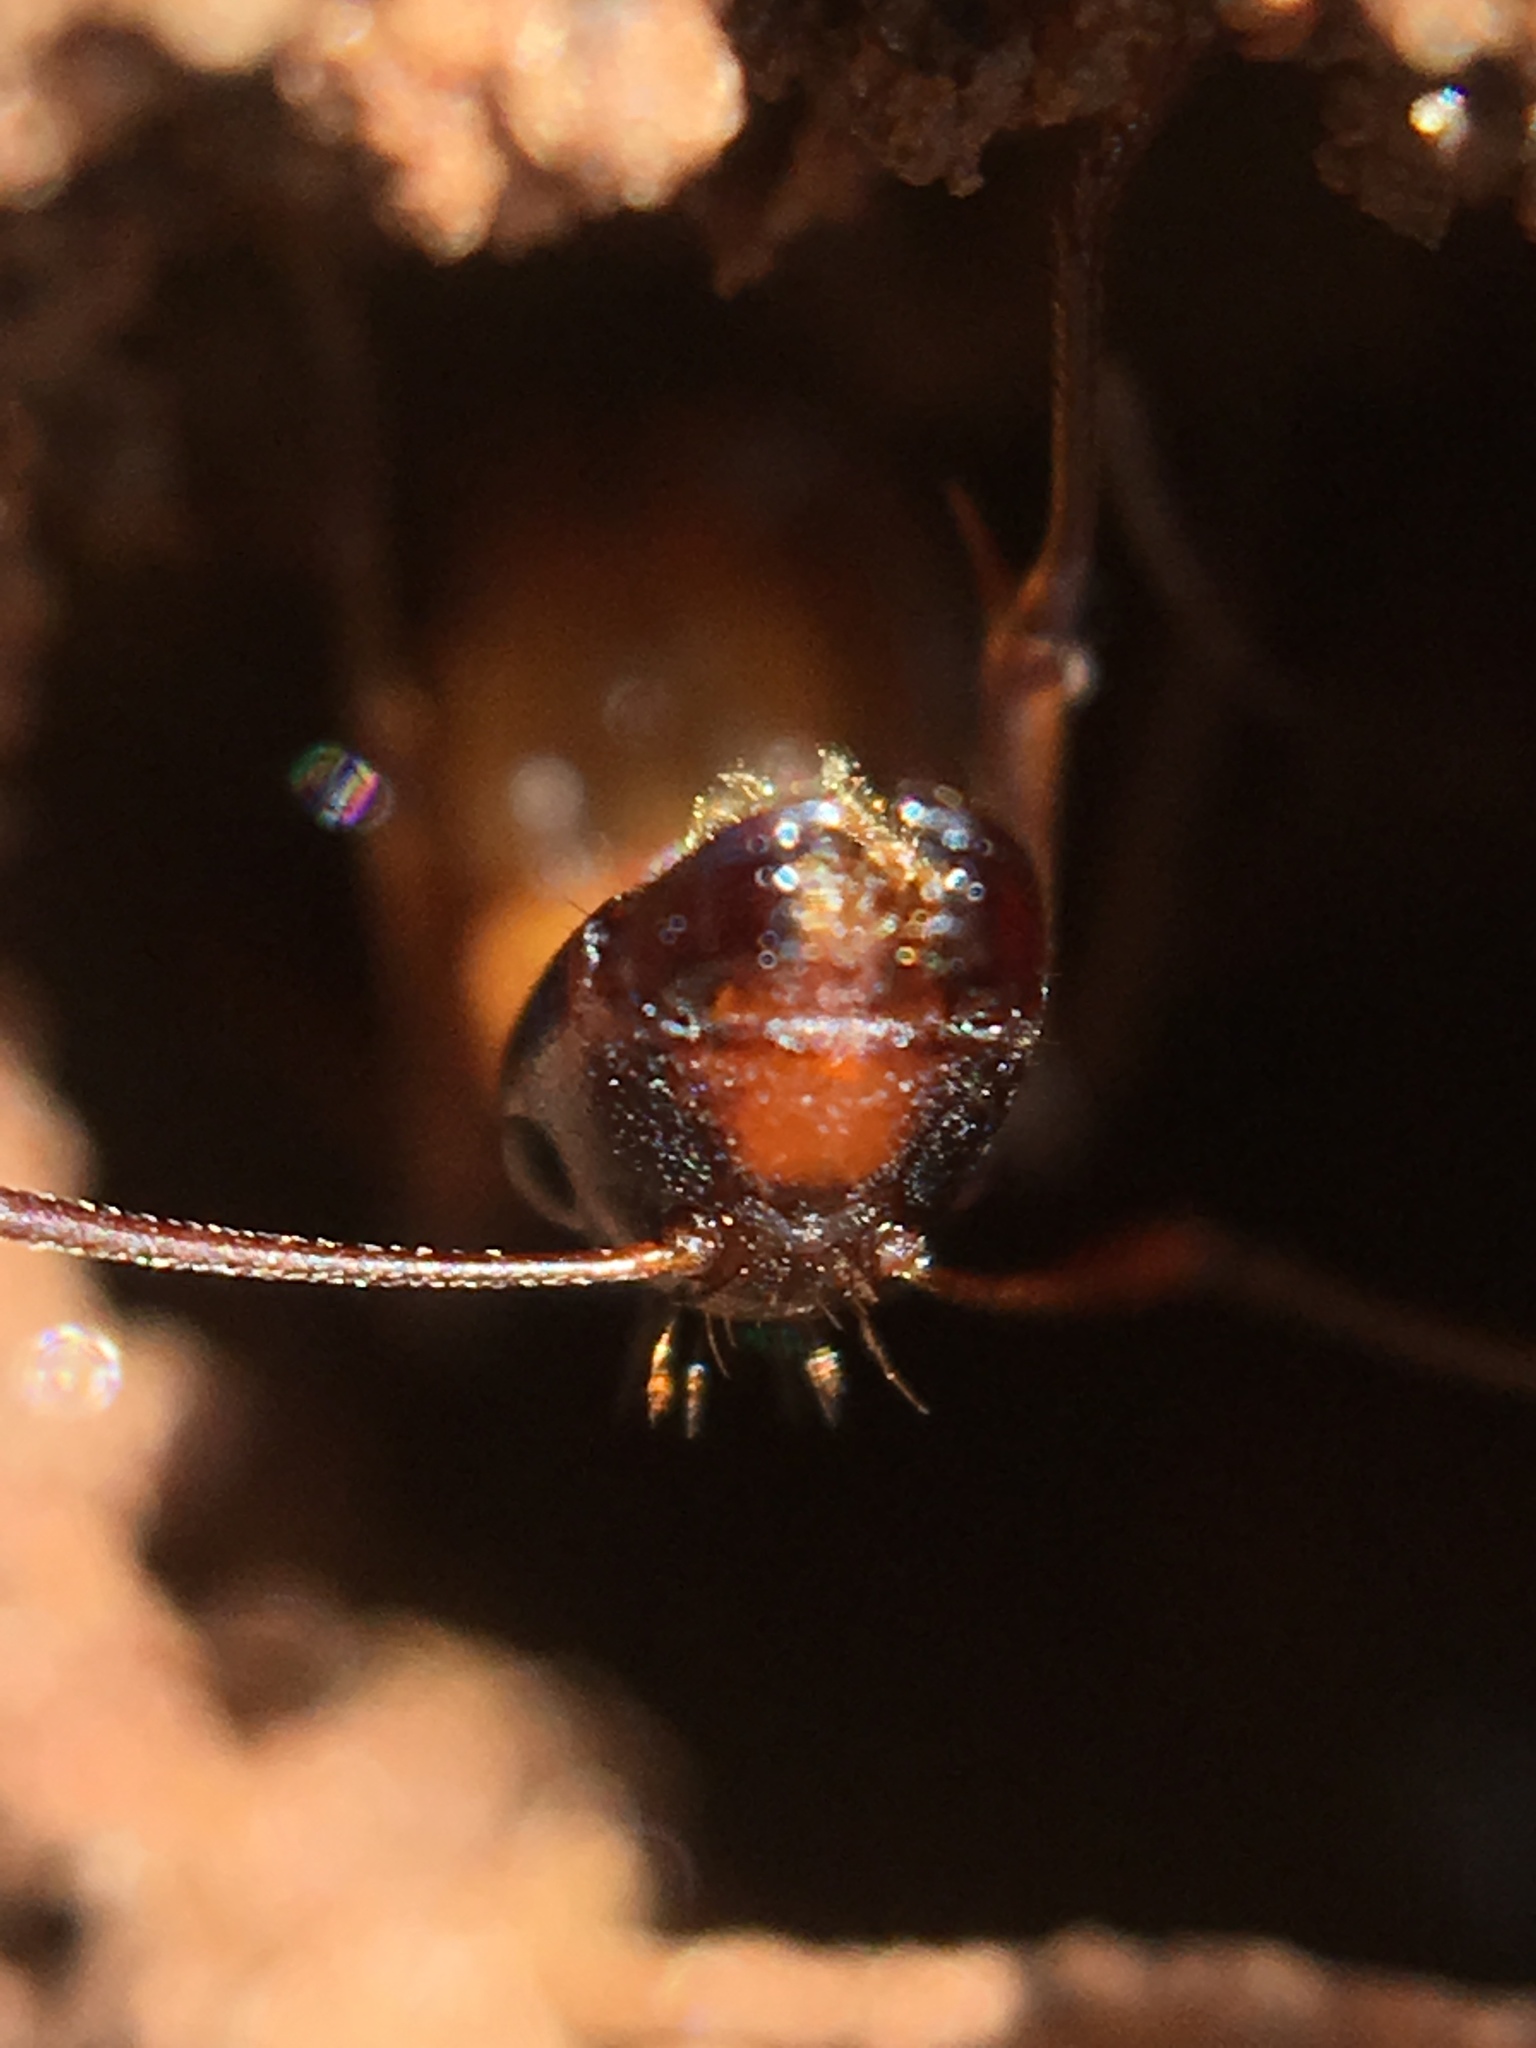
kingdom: Animalia
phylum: Arthropoda
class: Insecta
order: Hymenoptera
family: Formicidae
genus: Camponotus
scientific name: Camponotus americanus
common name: American carpenter ant
